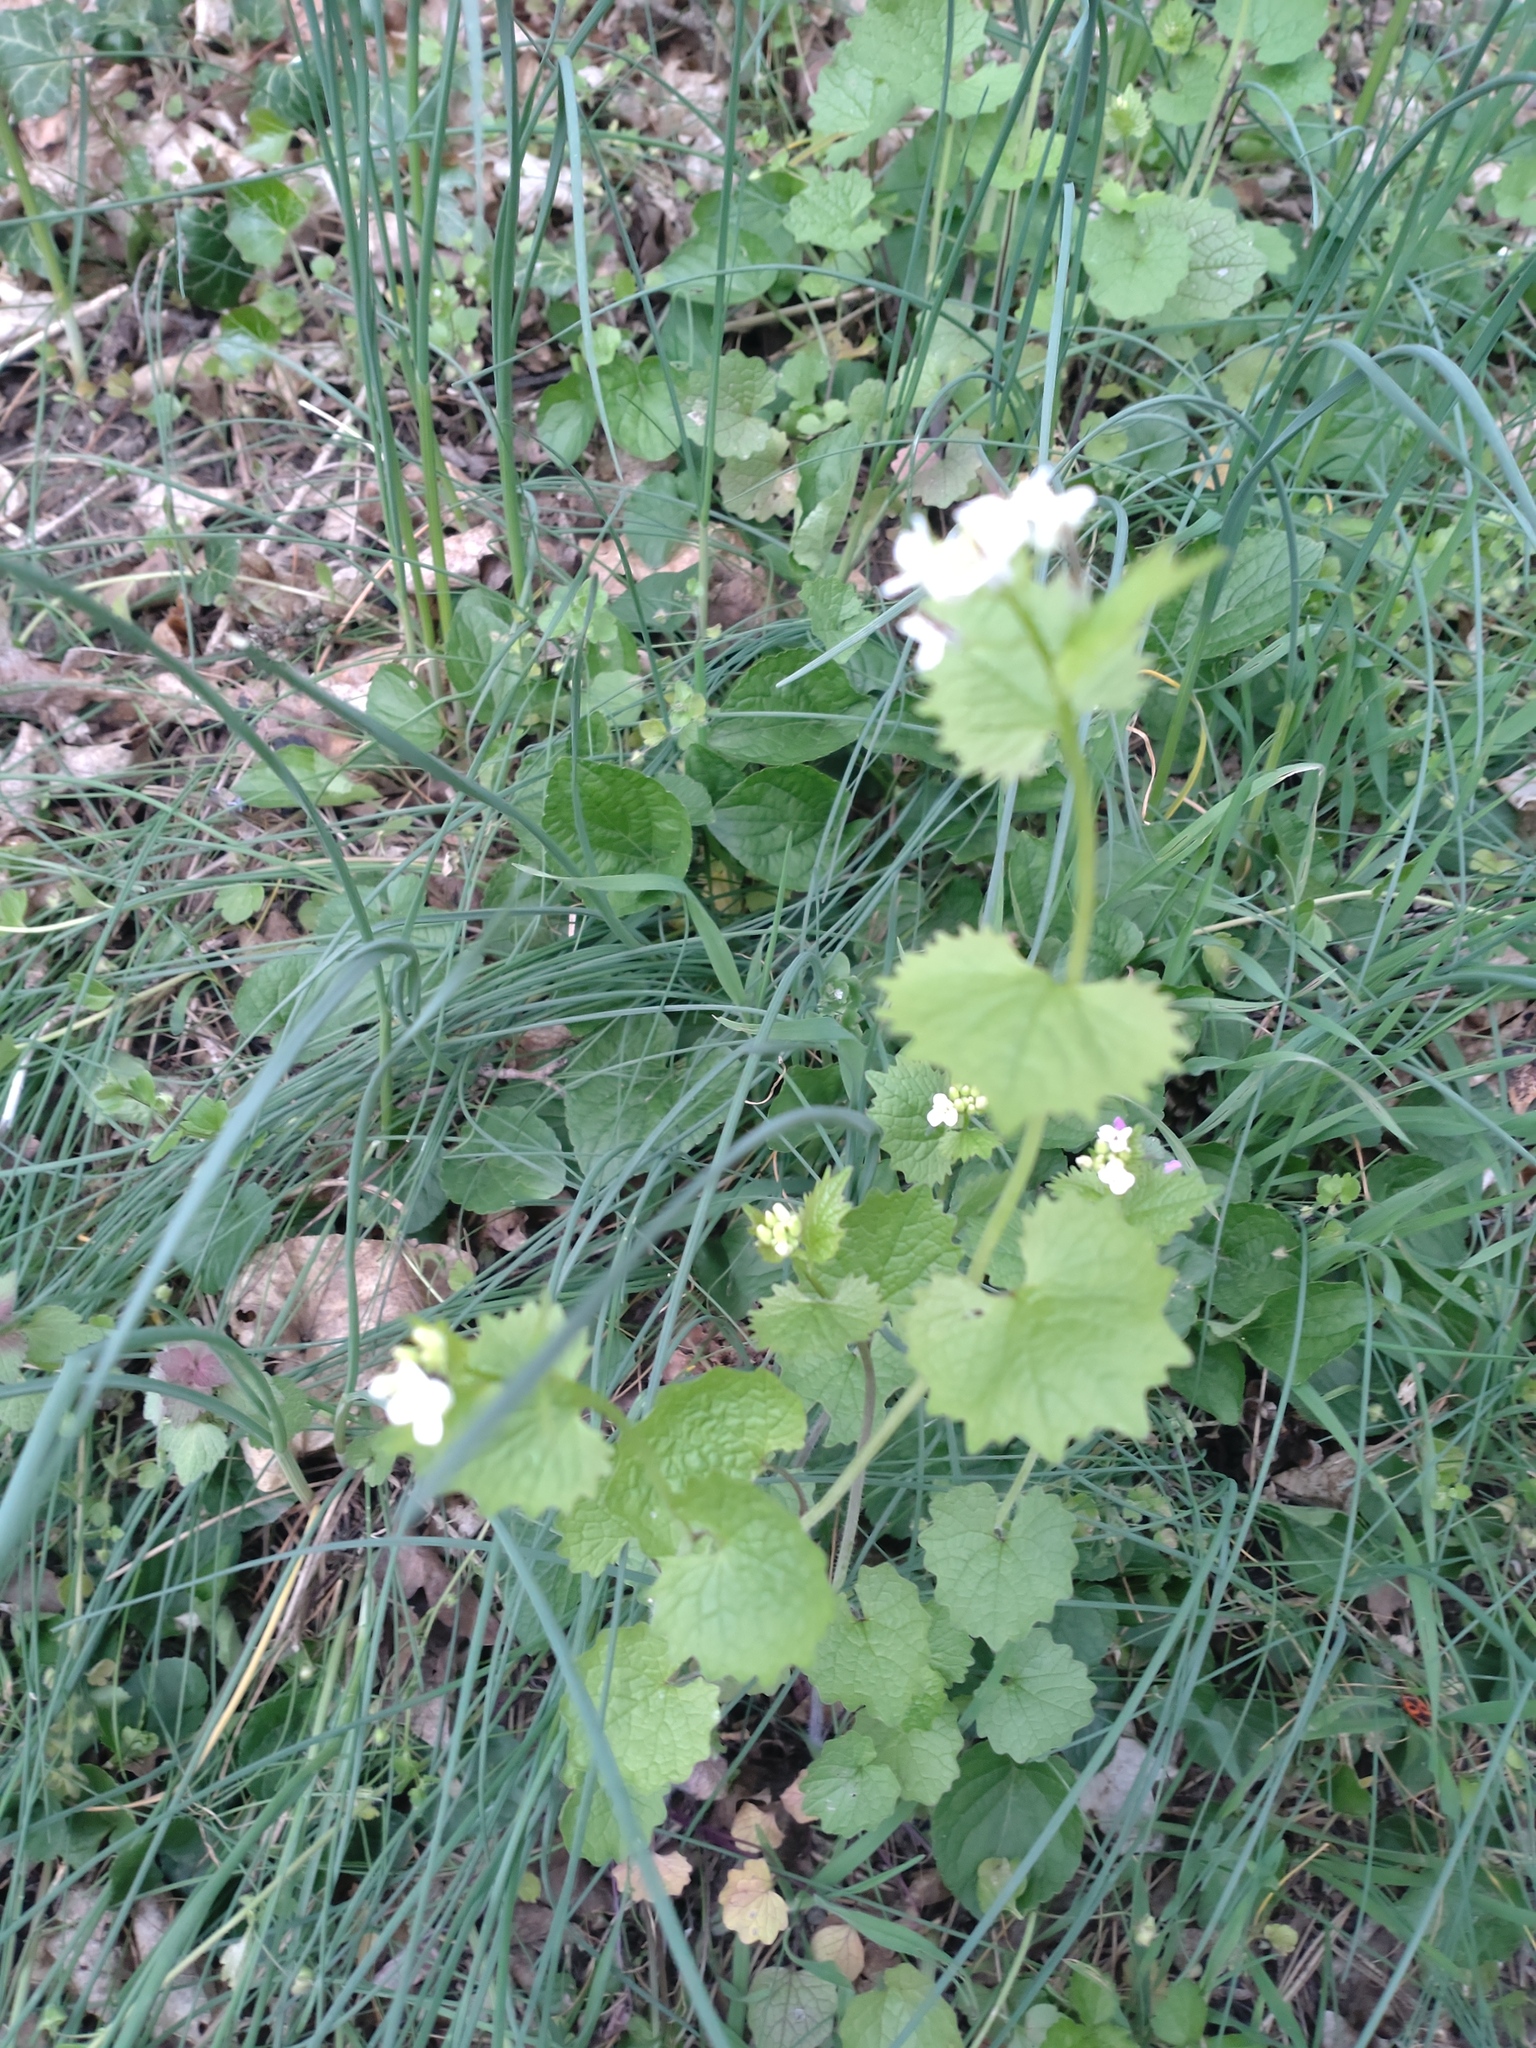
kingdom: Plantae
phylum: Tracheophyta
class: Magnoliopsida
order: Brassicales
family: Brassicaceae
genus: Alliaria
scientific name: Alliaria petiolata
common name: Garlic mustard
